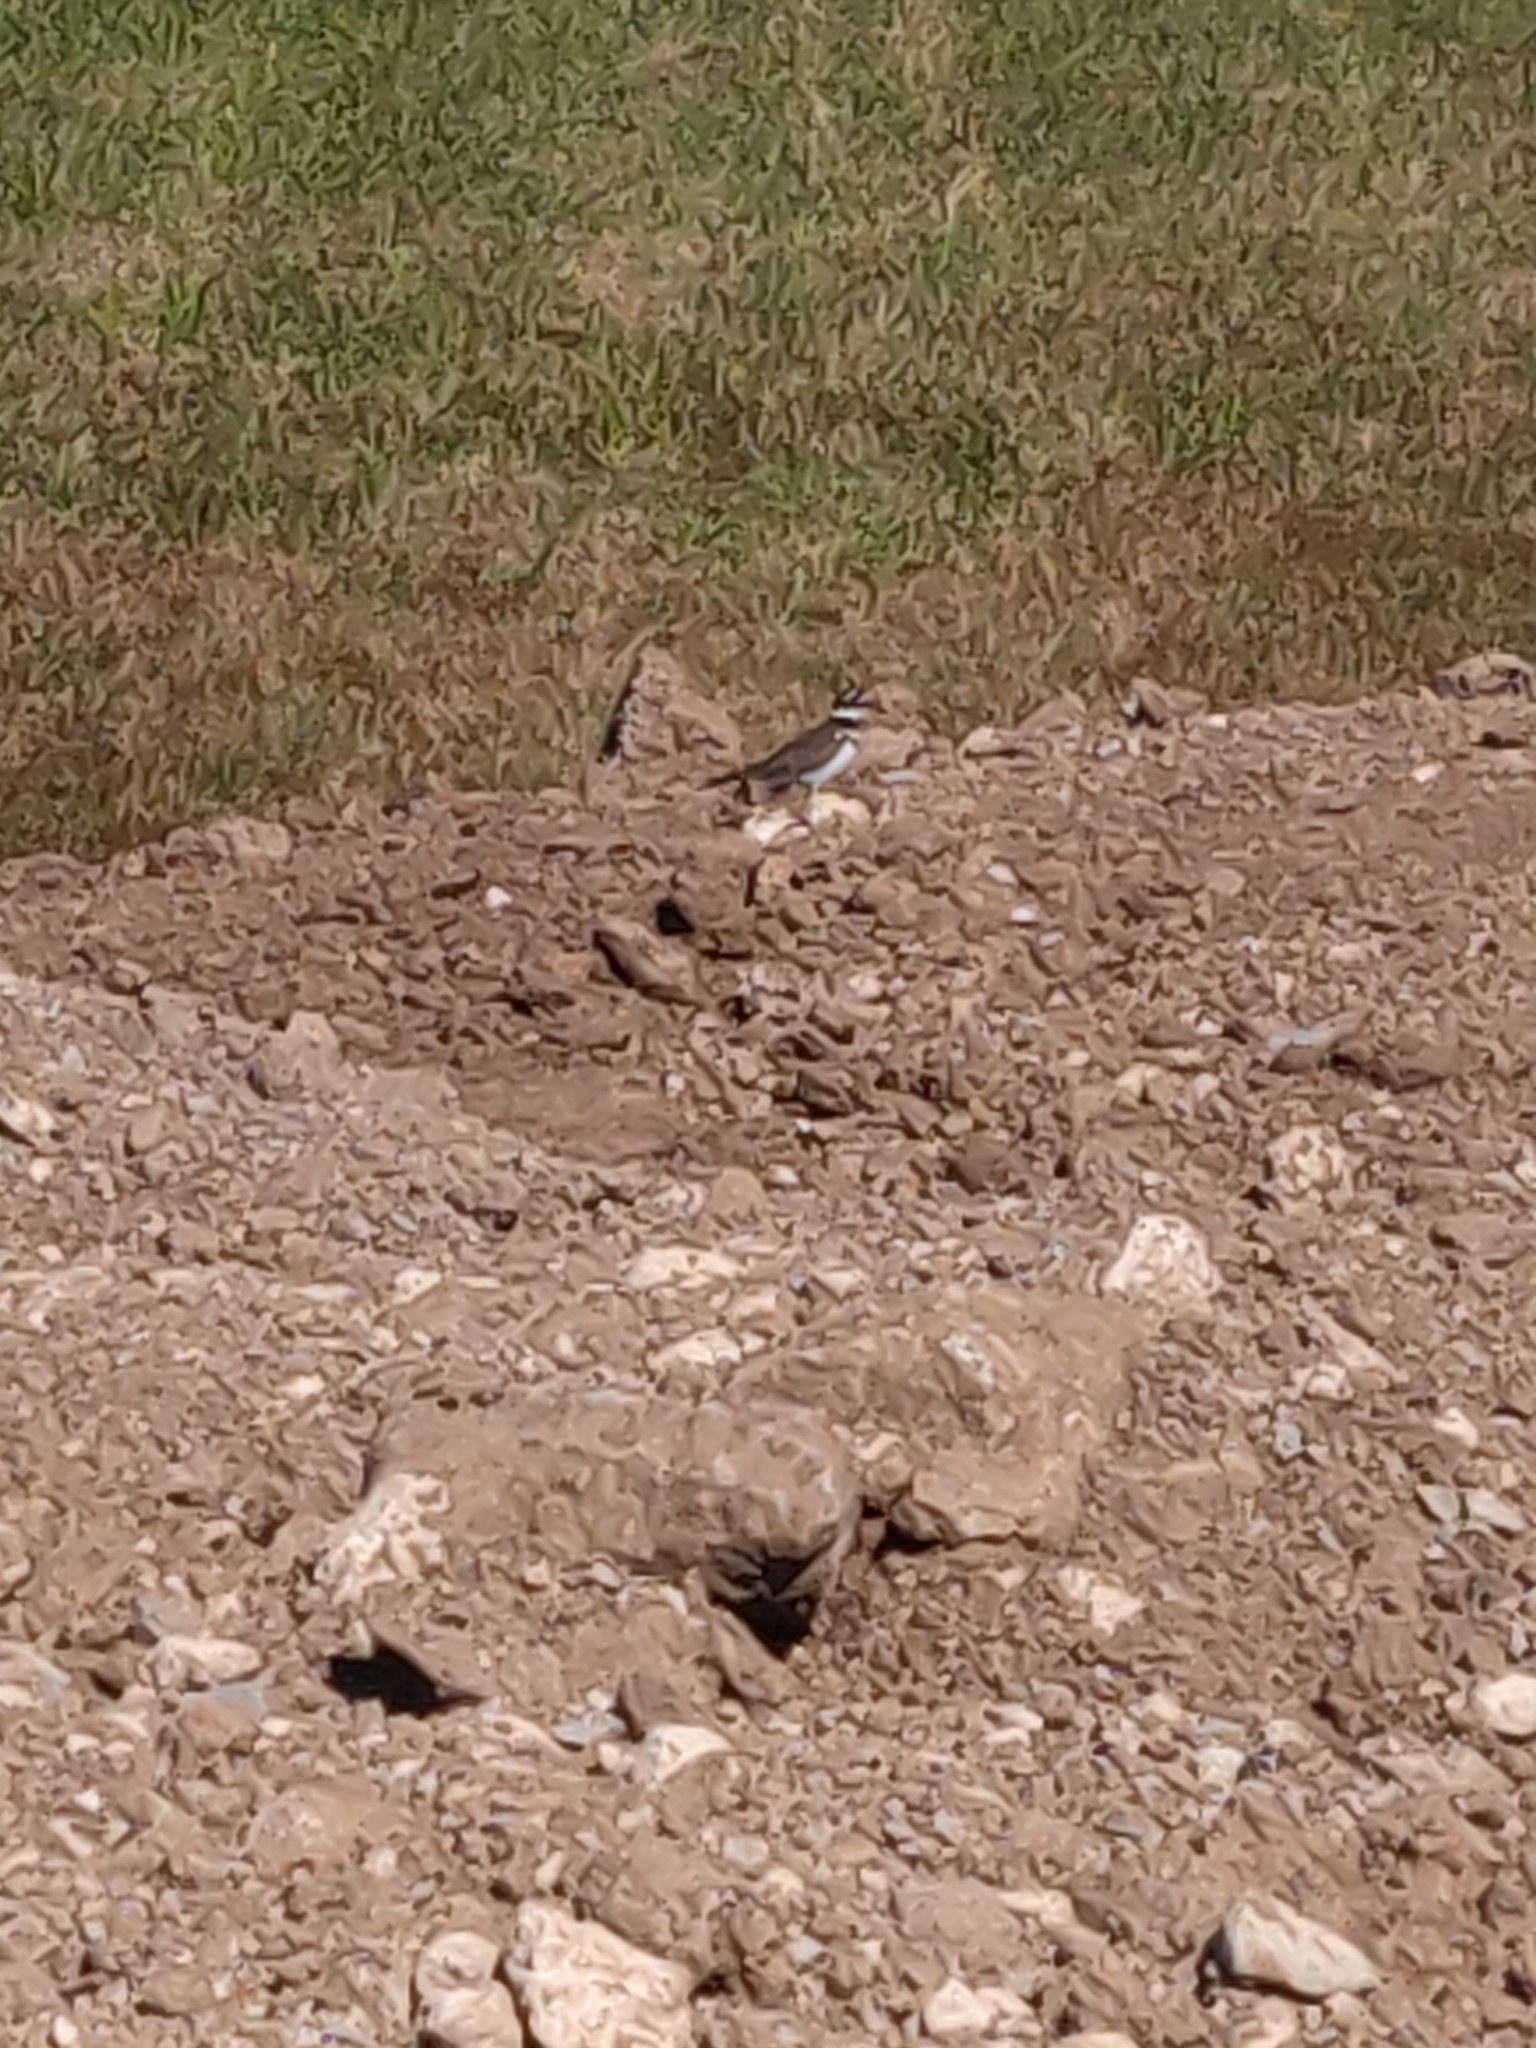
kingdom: Animalia
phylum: Chordata
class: Aves
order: Charadriiformes
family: Charadriidae
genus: Charadrius
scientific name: Charadrius vociferus
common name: Killdeer
